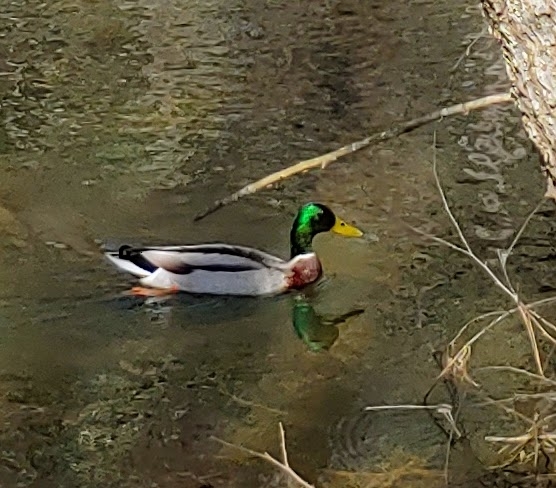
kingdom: Animalia
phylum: Chordata
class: Aves
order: Anseriformes
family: Anatidae
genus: Anas
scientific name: Anas platyrhynchos
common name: Mallard
